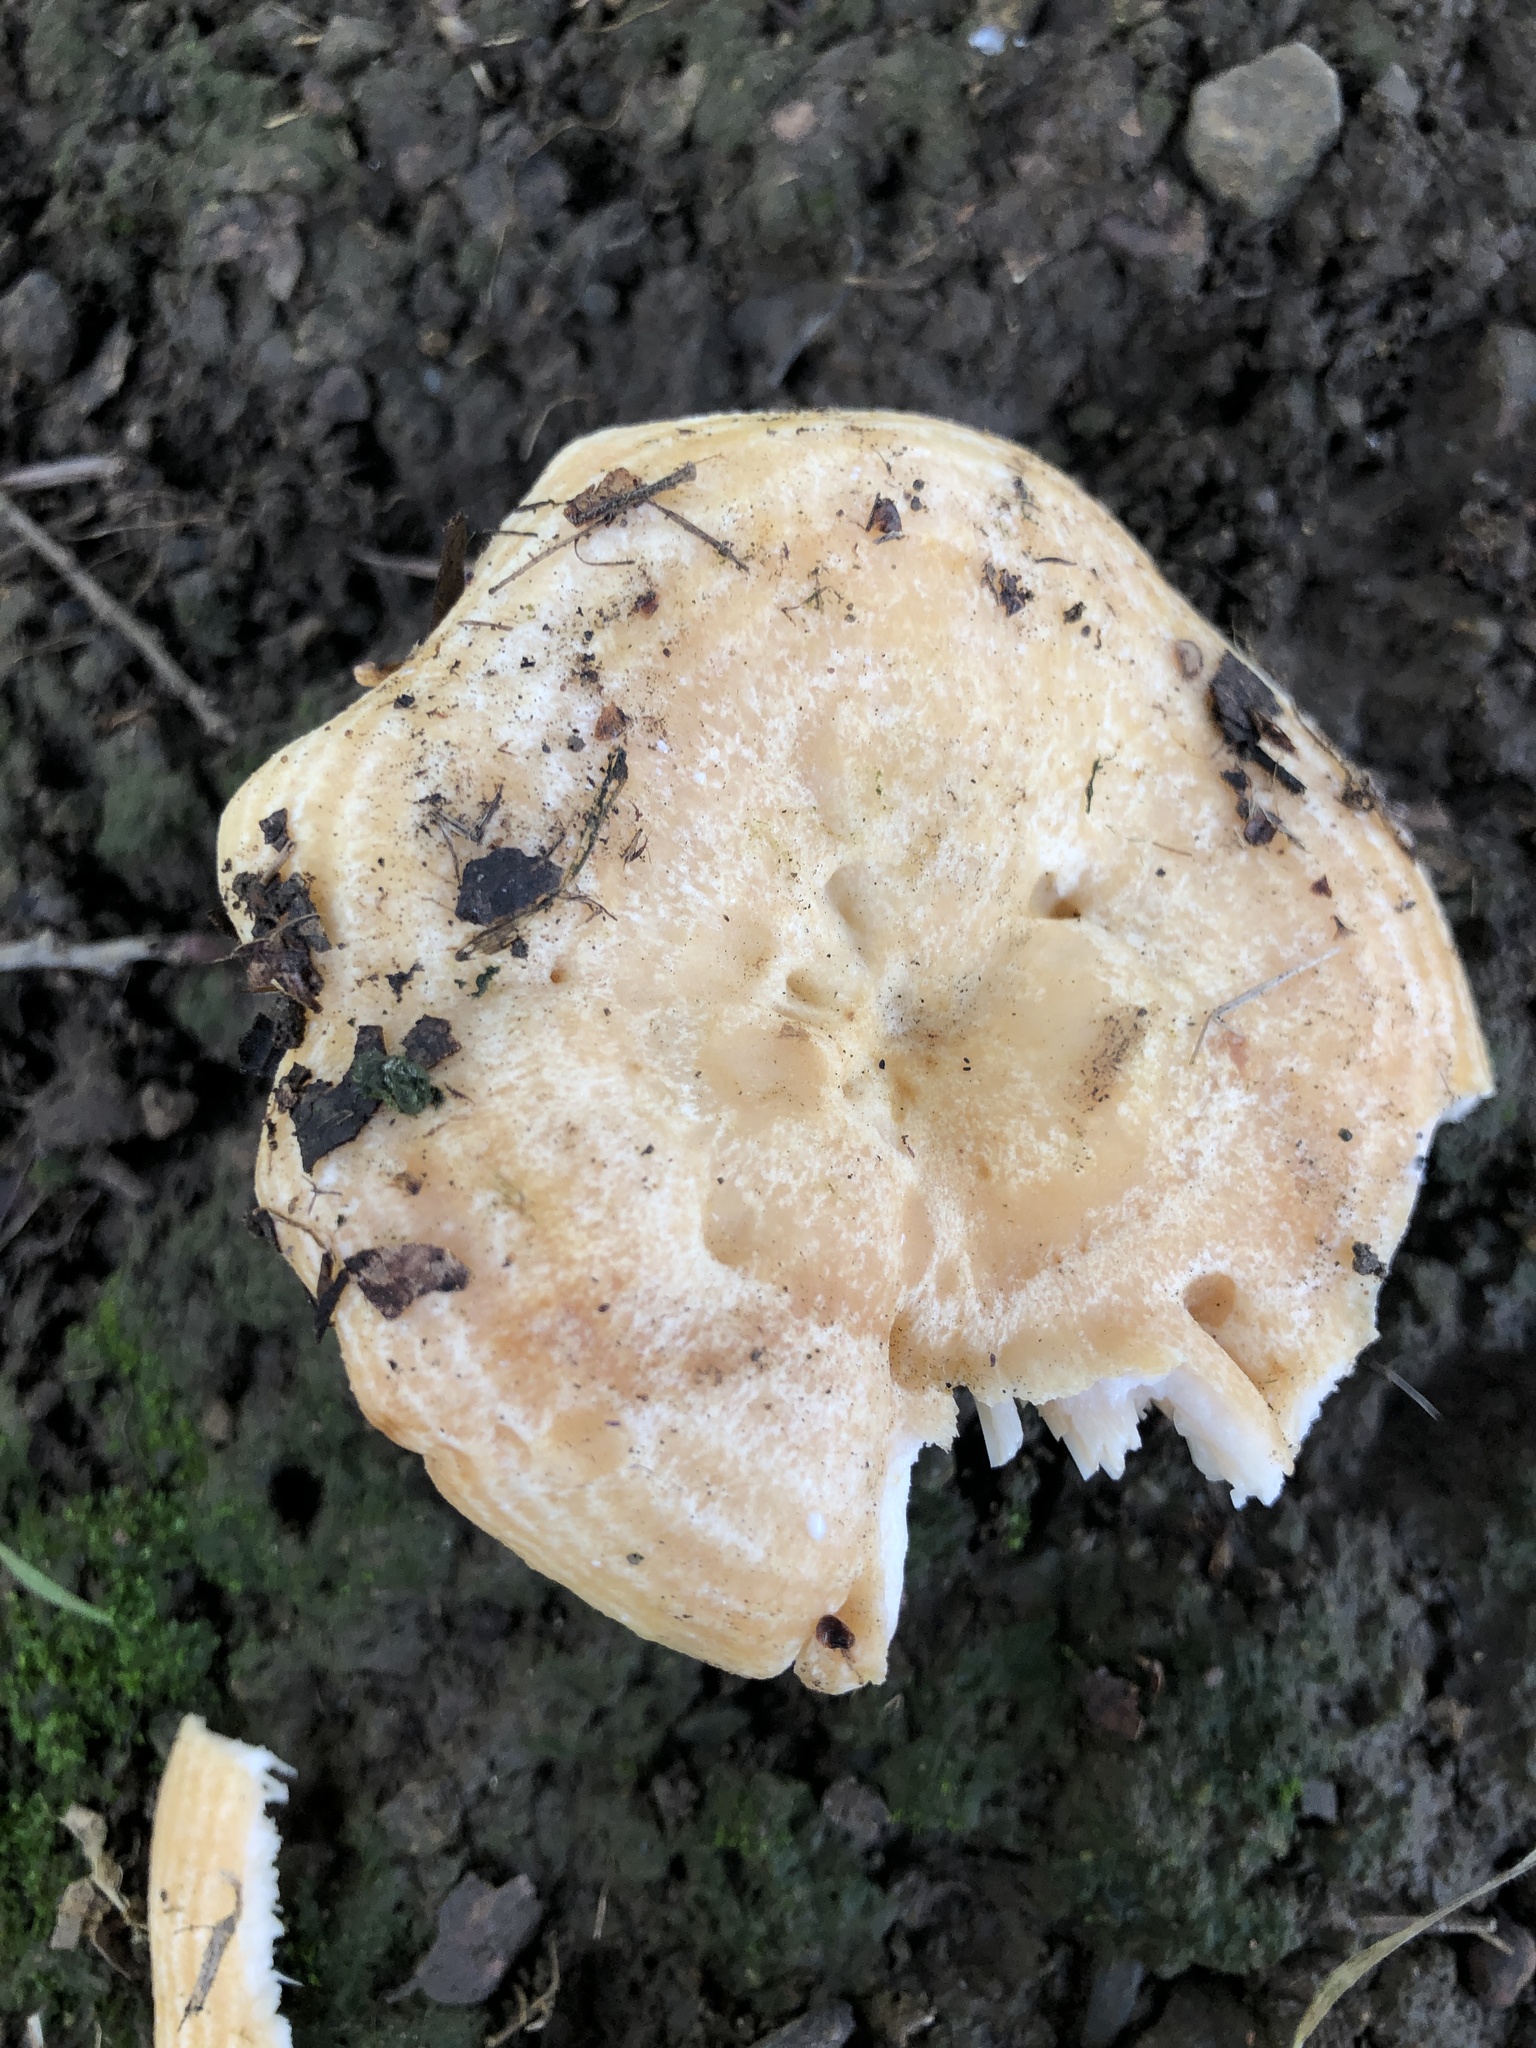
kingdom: Fungi
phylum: Basidiomycota
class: Agaricomycetes
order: Russulales
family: Russulaceae
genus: Lactarius
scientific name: Lactarius alnicola
